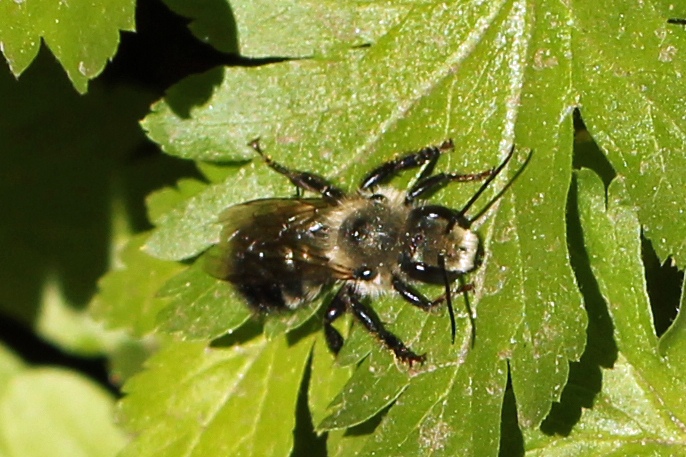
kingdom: Animalia
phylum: Arthropoda
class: Insecta
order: Hymenoptera
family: Megachilidae
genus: Osmia
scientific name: Osmia bucephala
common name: Bufflehead mason bee
